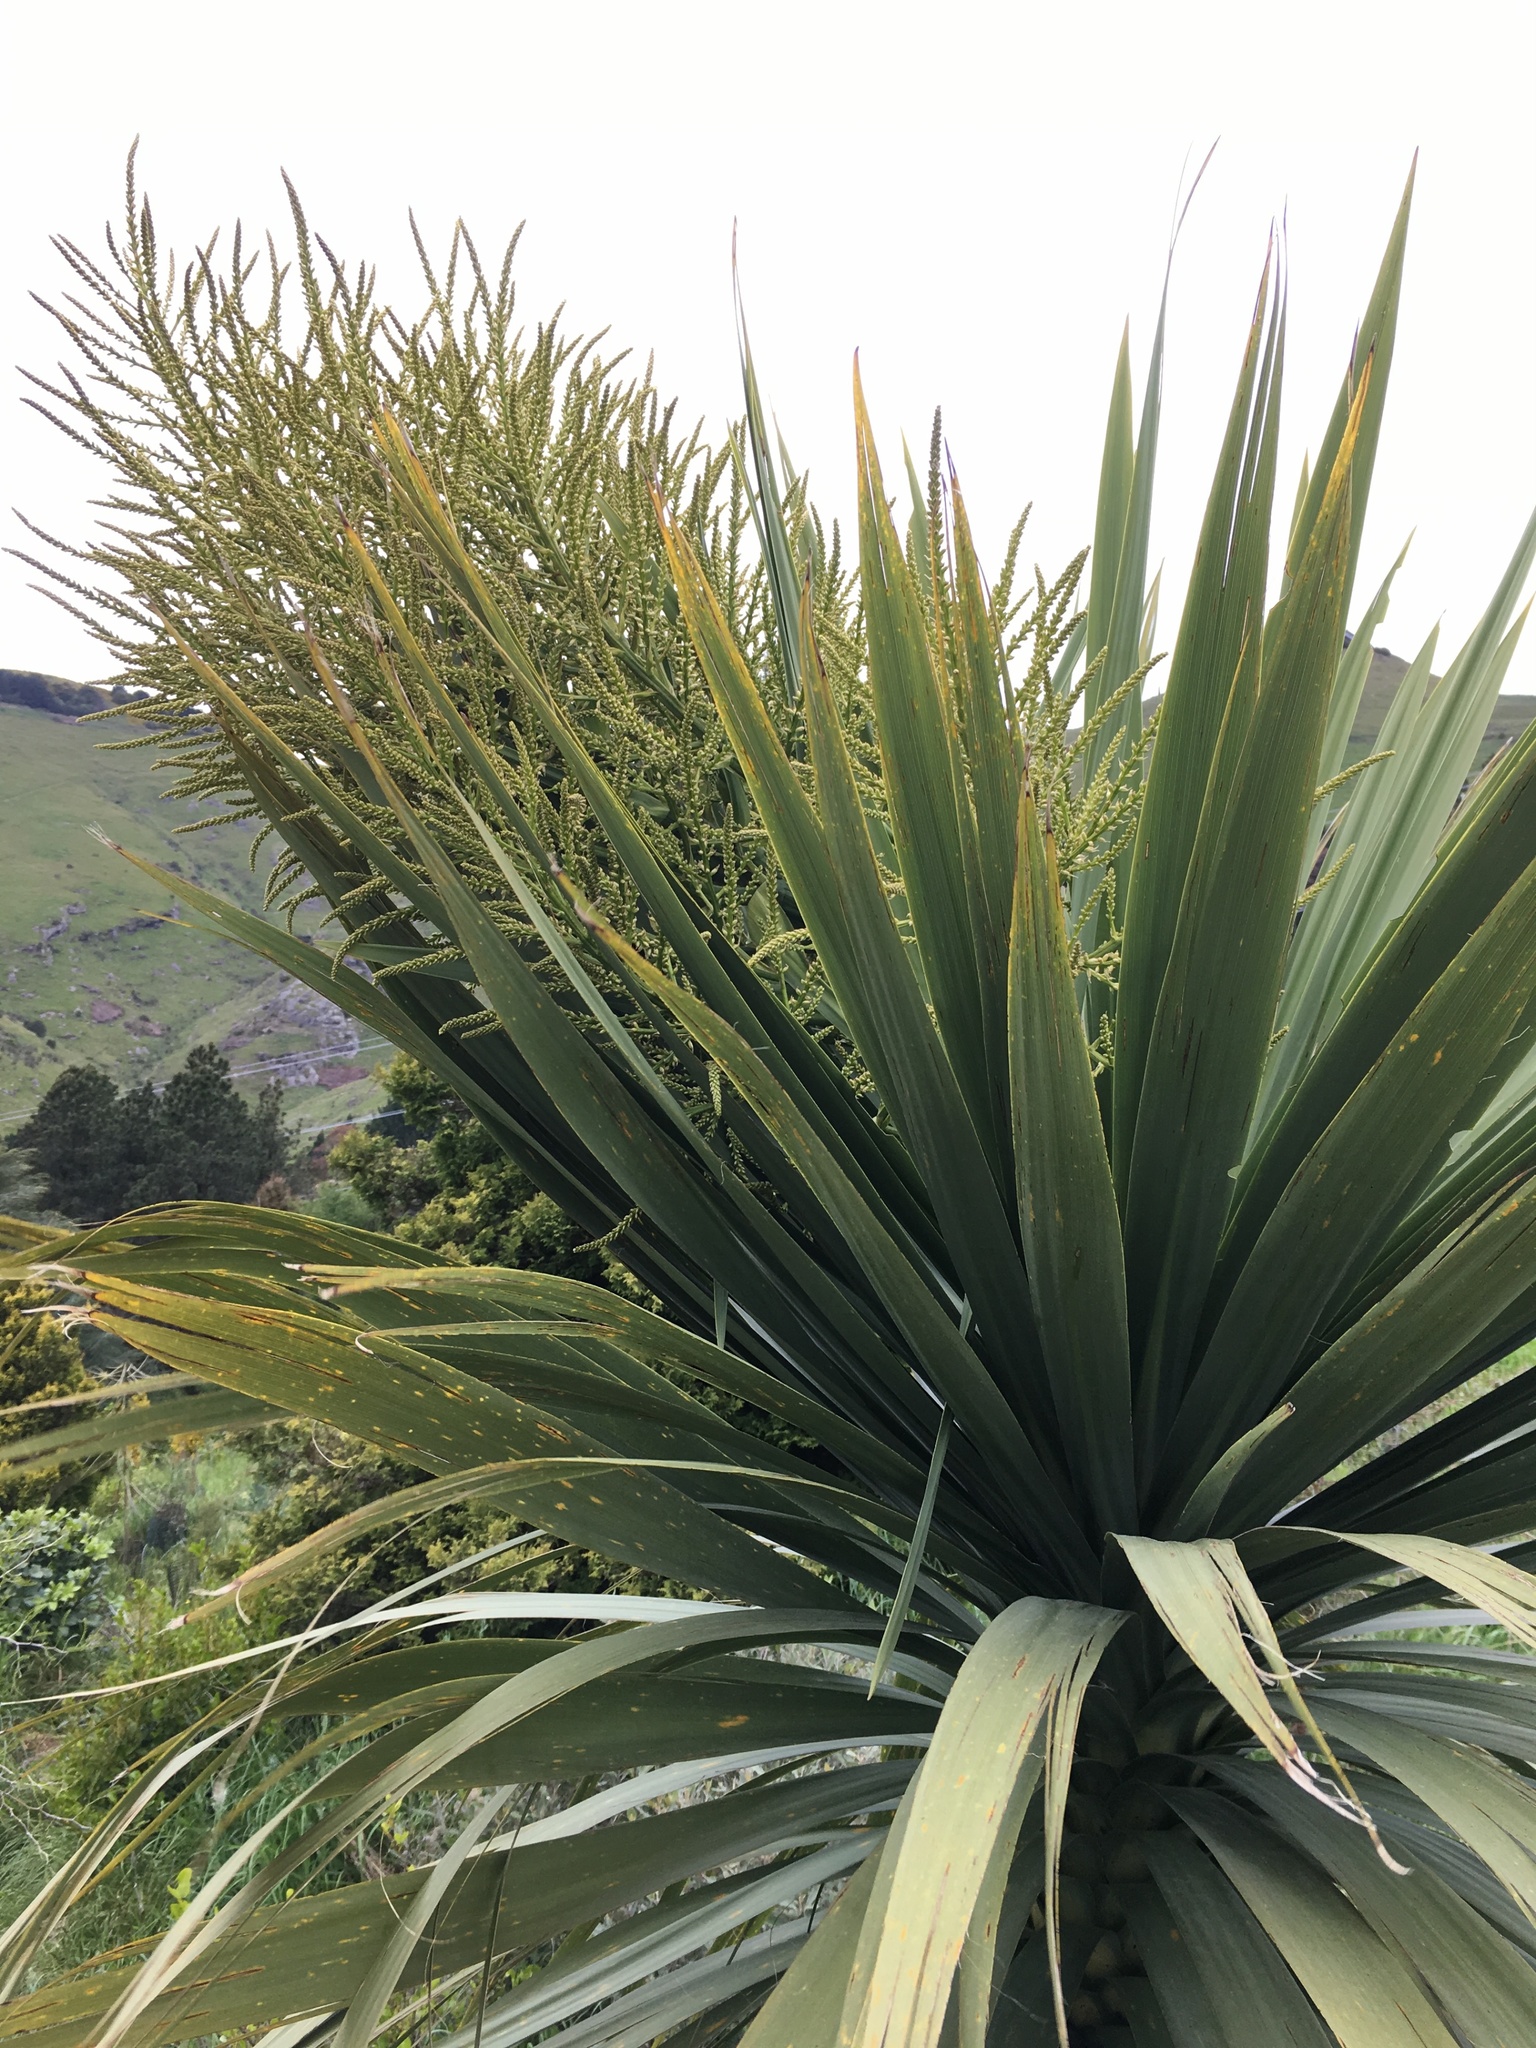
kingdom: Plantae
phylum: Tracheophyta
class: Liliopsida
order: Asparagales
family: Asparagaceae
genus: Cordyline
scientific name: Cordyline australis
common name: Cabbage-palm
